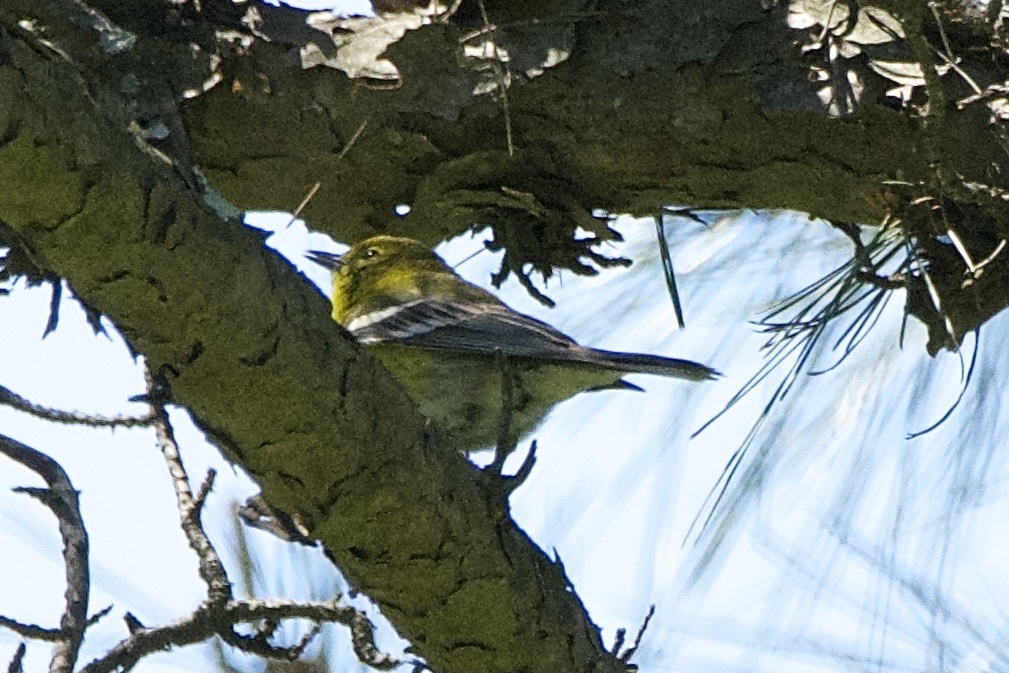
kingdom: Animalia
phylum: Chordata
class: Aves
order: Passeriformes
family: Parulidae
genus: Setophaga
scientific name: Setophaga pinus
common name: Pine warbler
